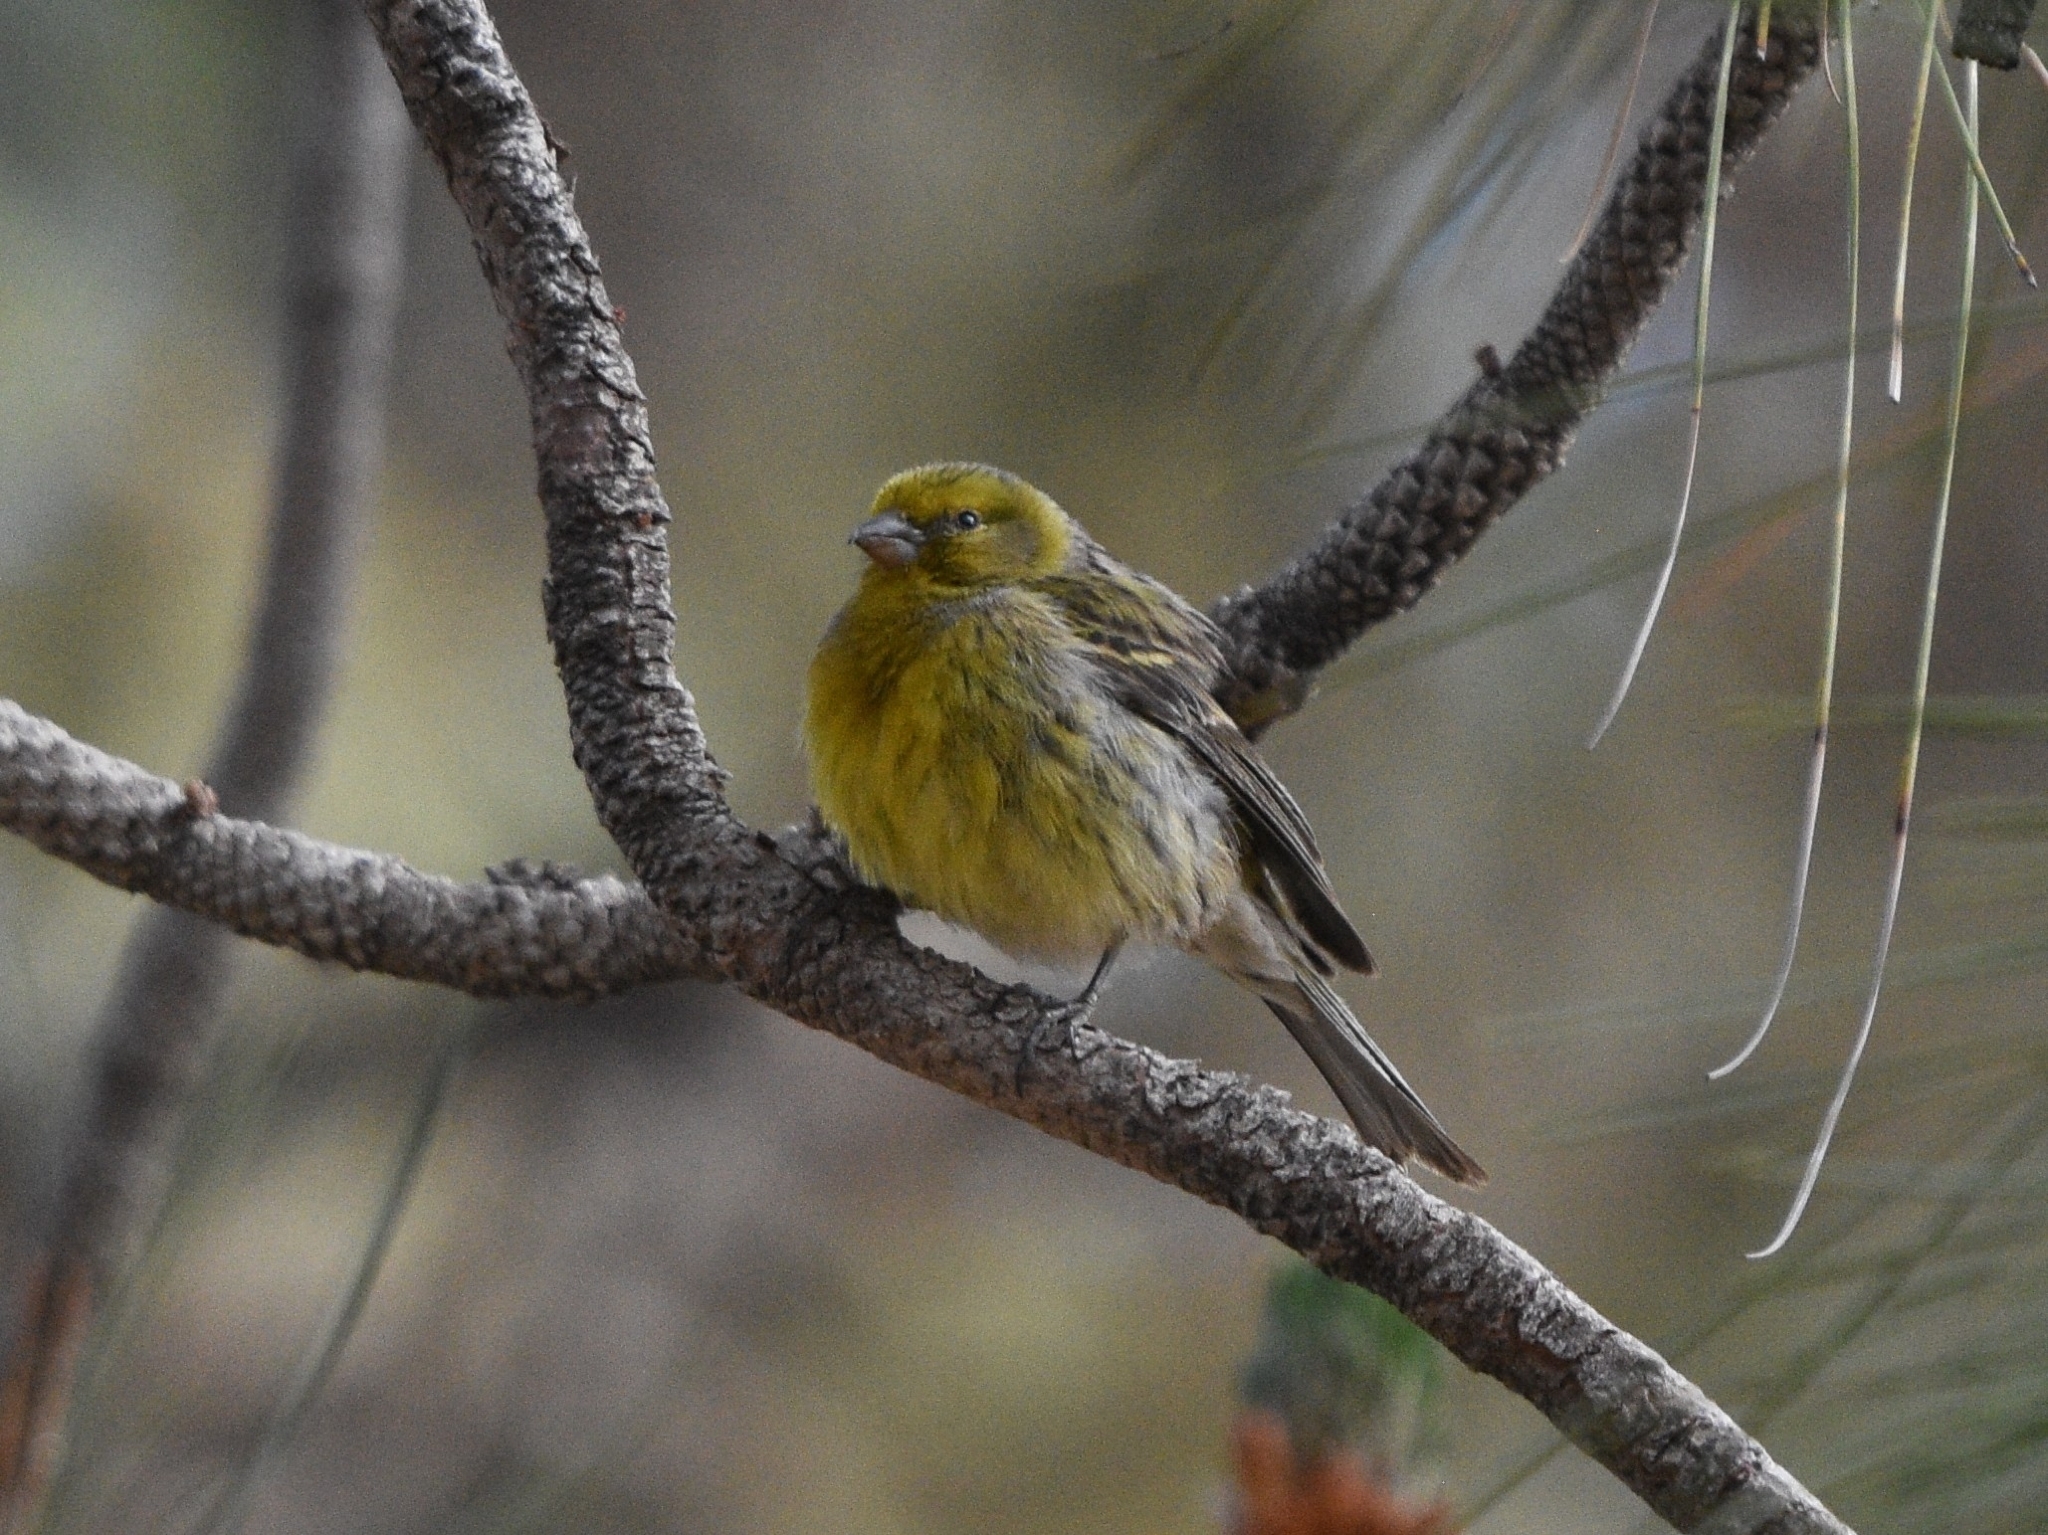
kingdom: Animalia
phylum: Chordata
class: Aves
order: Passeriformes
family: Fringillidae
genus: Serinus
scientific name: Serinus canaria
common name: Atlantic canary
